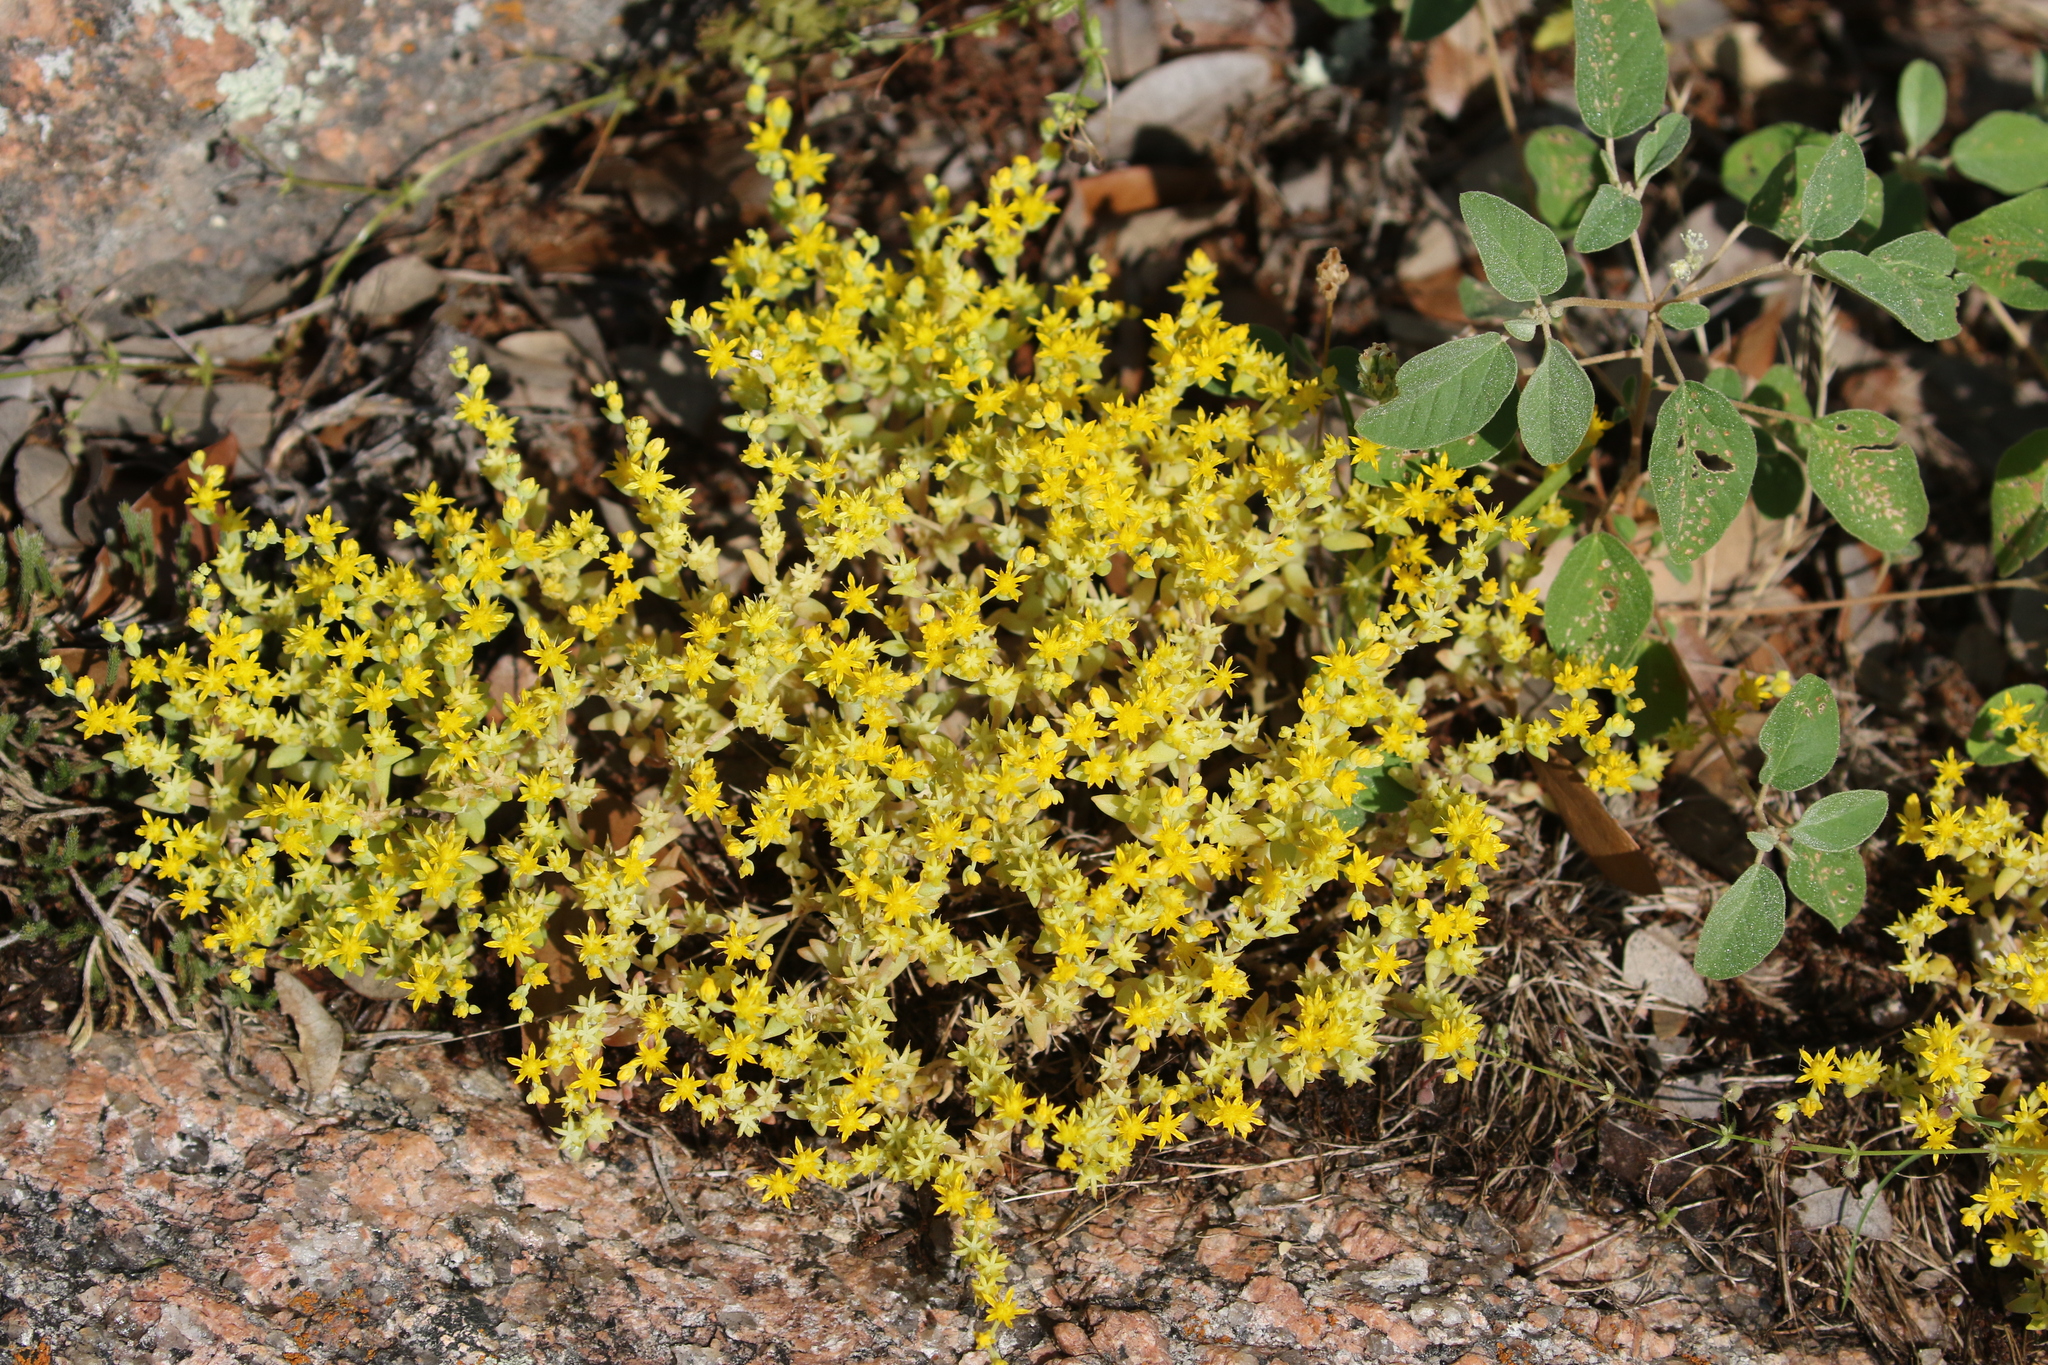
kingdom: Plantae
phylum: Tracheophyta
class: Magnoliopsida
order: Saxifragales
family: Crassulaceae
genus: Sedum
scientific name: Sedum nuttallii
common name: Yellow stonecrop
